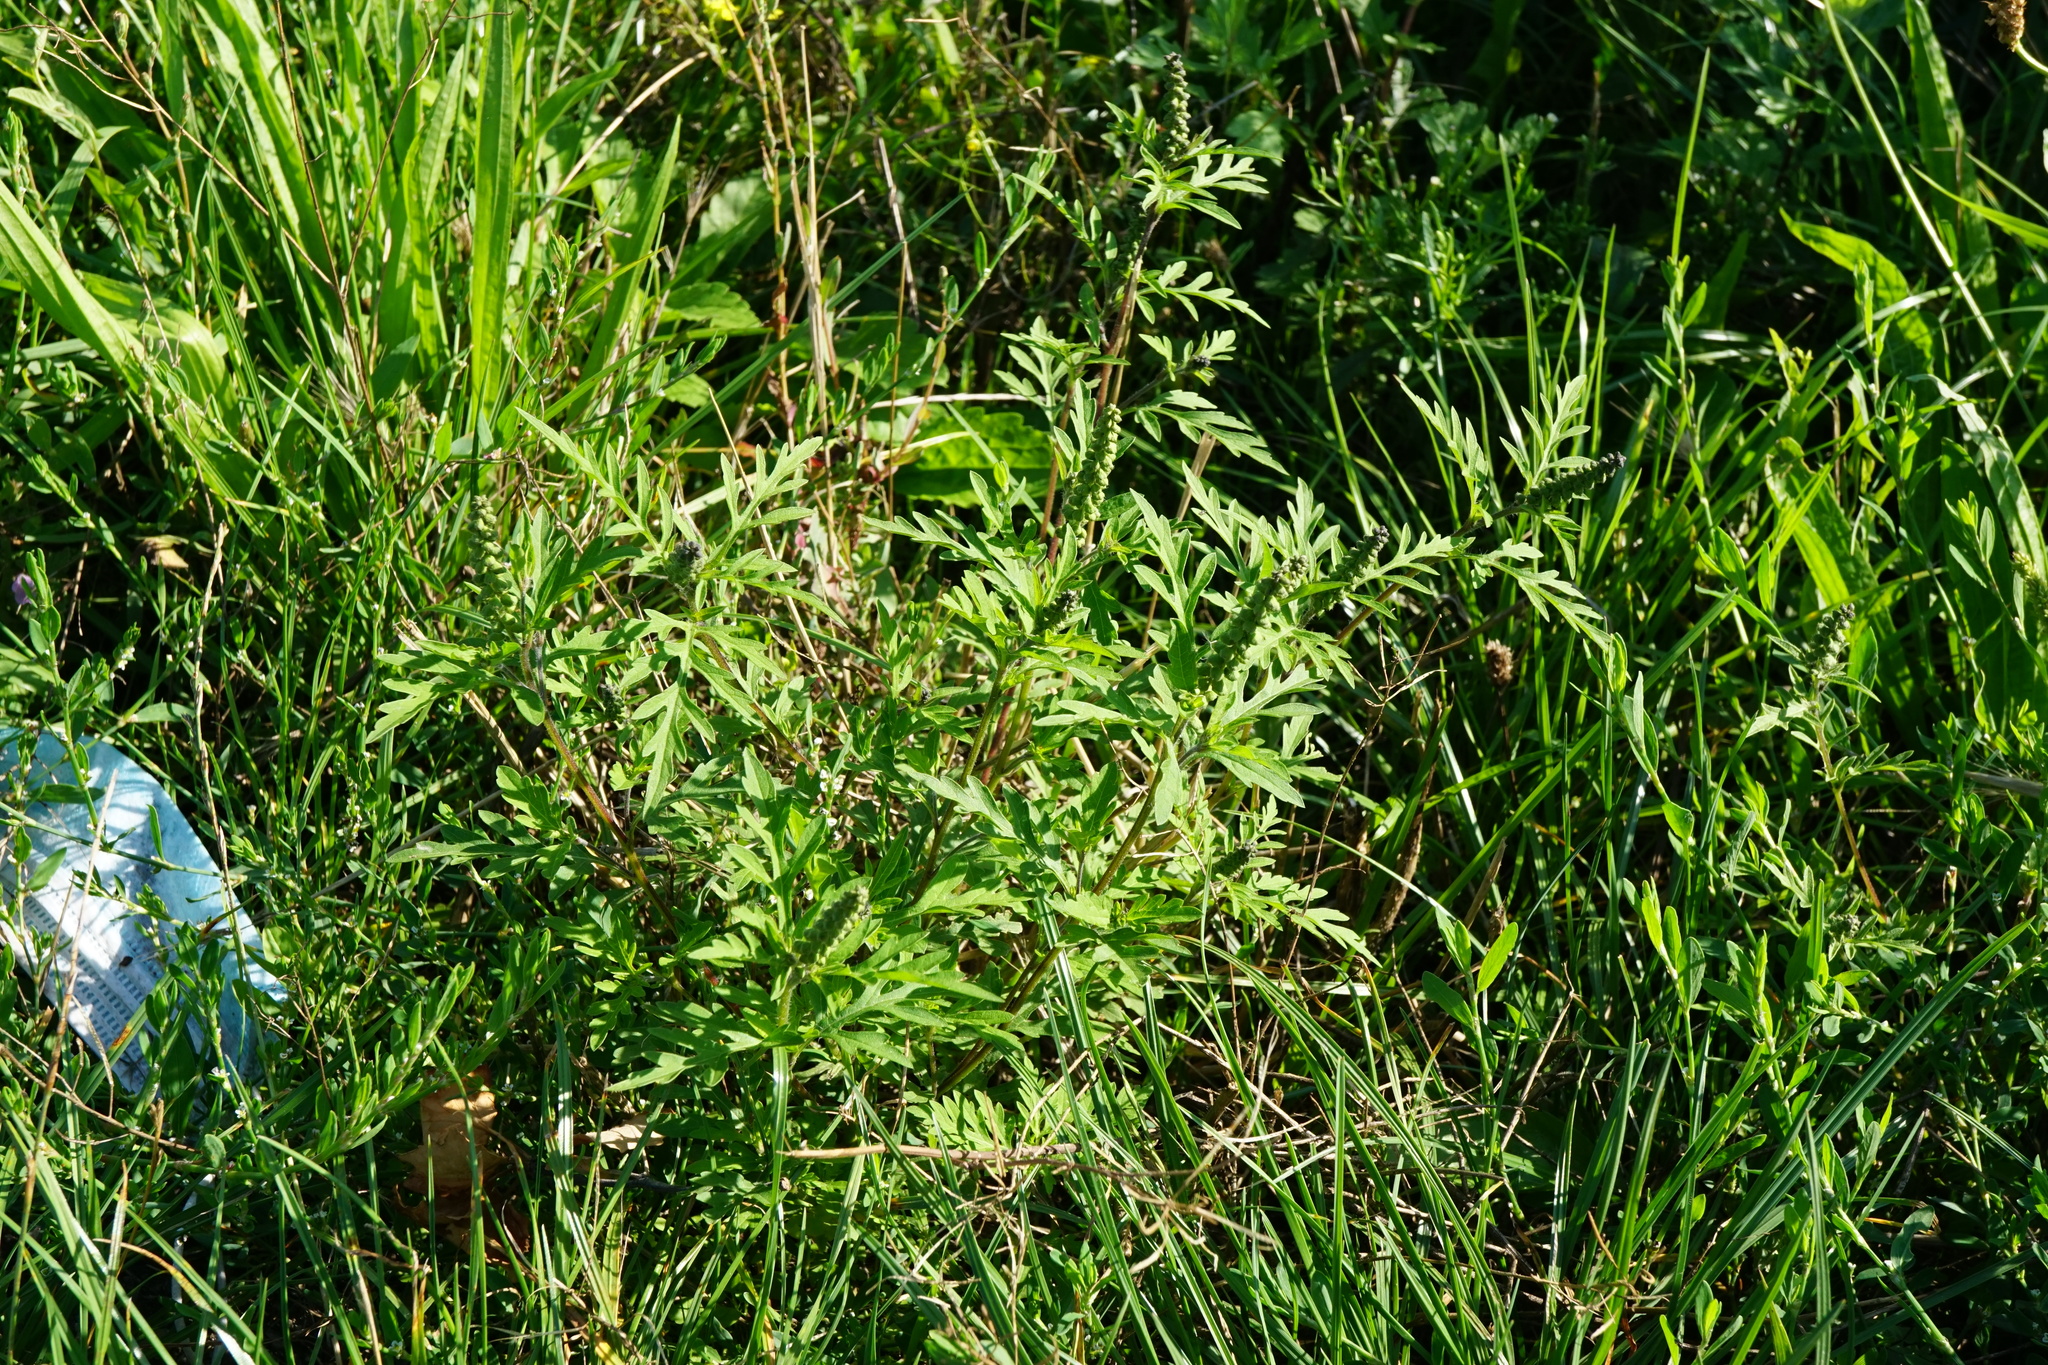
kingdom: Plantae
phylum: Tracheophyta
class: Magnoliopsida
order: Asterales
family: Asteraceae
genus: Ambrosia
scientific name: Ambrosia artemisiifolia
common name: Annual ragweed
